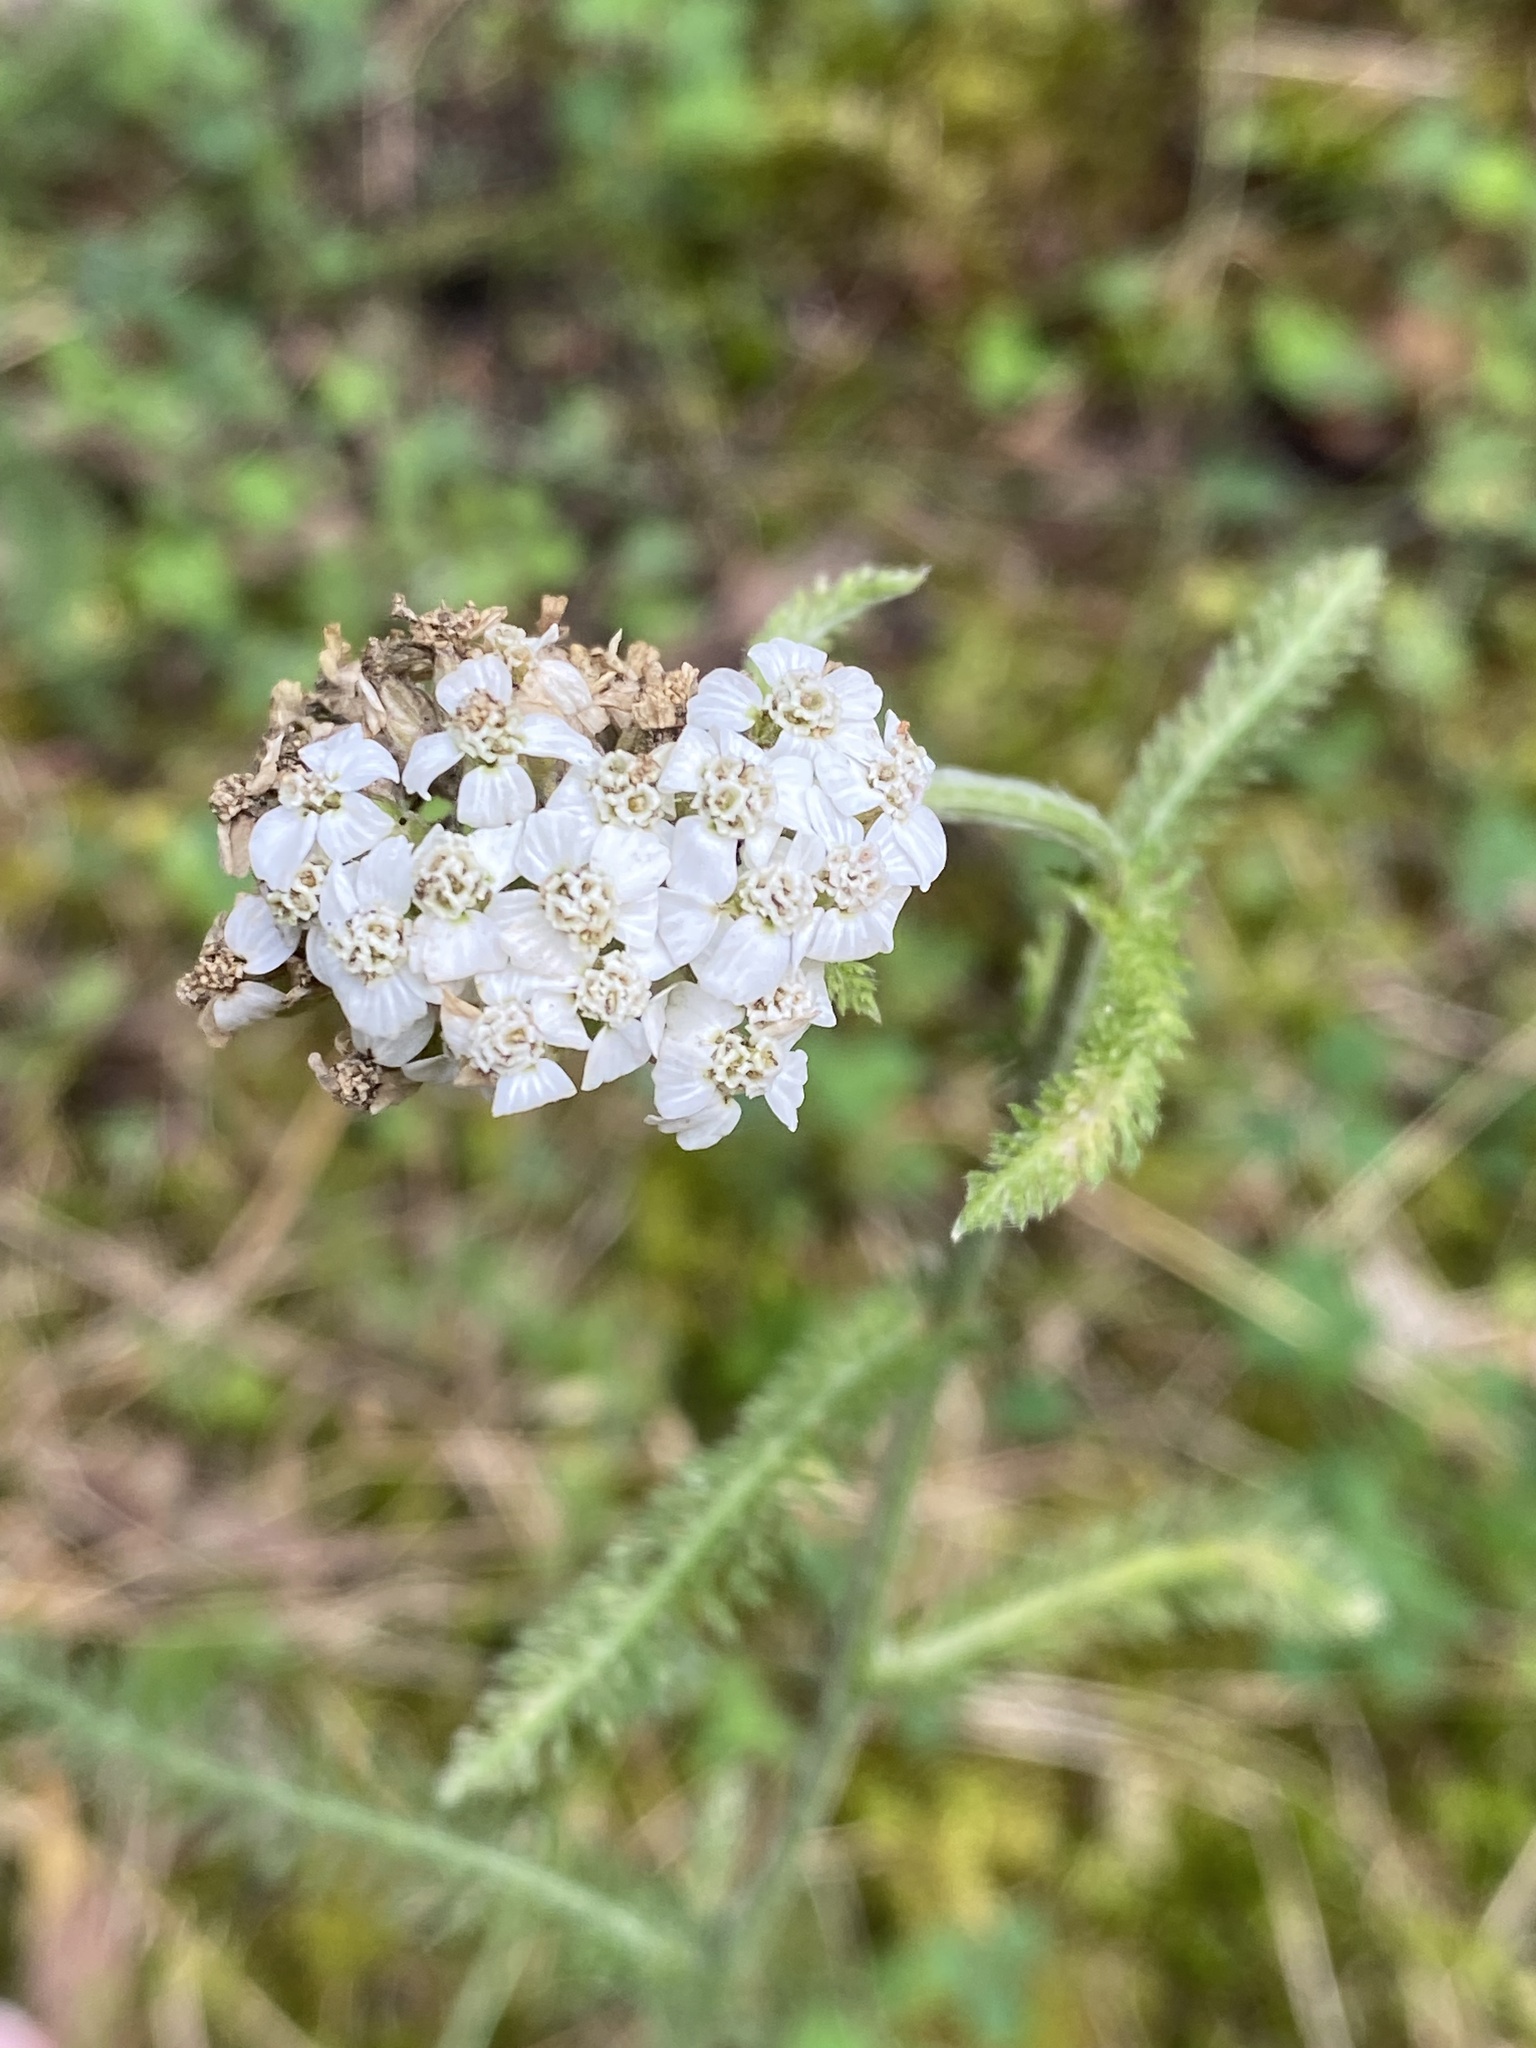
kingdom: Plantae
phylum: Tracheophyta
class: Magnoliopsida
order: Asterales
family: Asteraceae
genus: Achillea
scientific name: Achillea millefolium
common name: Yarrow
